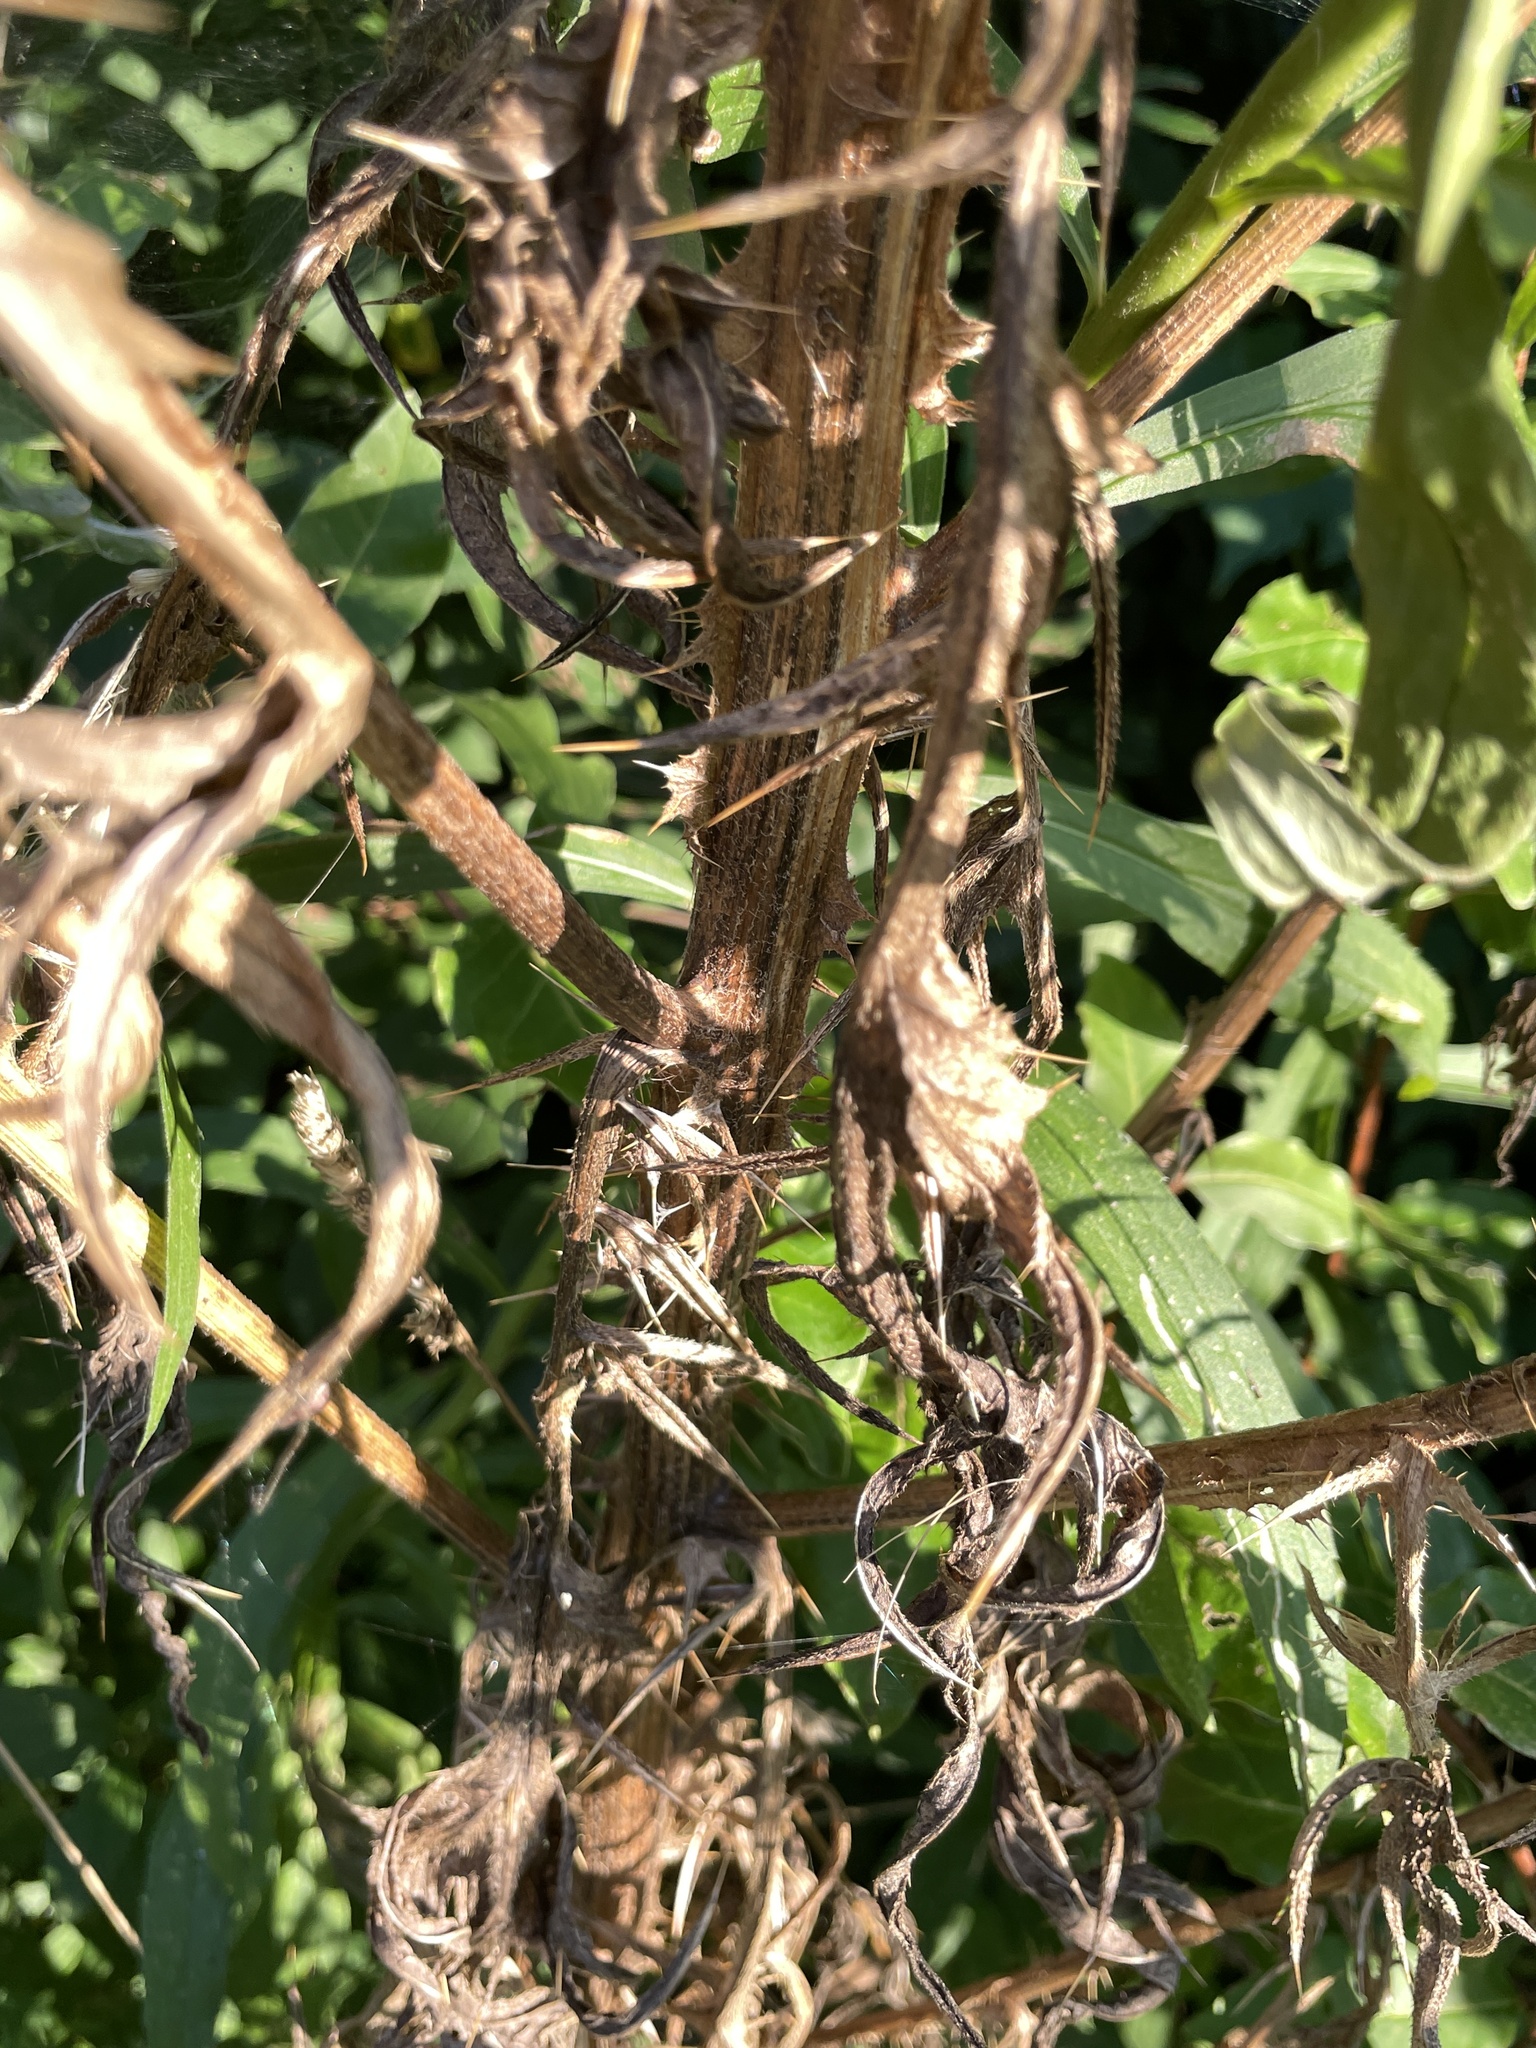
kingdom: Plantae
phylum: Tracheophyta
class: Magnoliopsida
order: Asterales
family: Asteraceae
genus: Cirsium
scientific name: Cirsium vulgare
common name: Bull thistle
